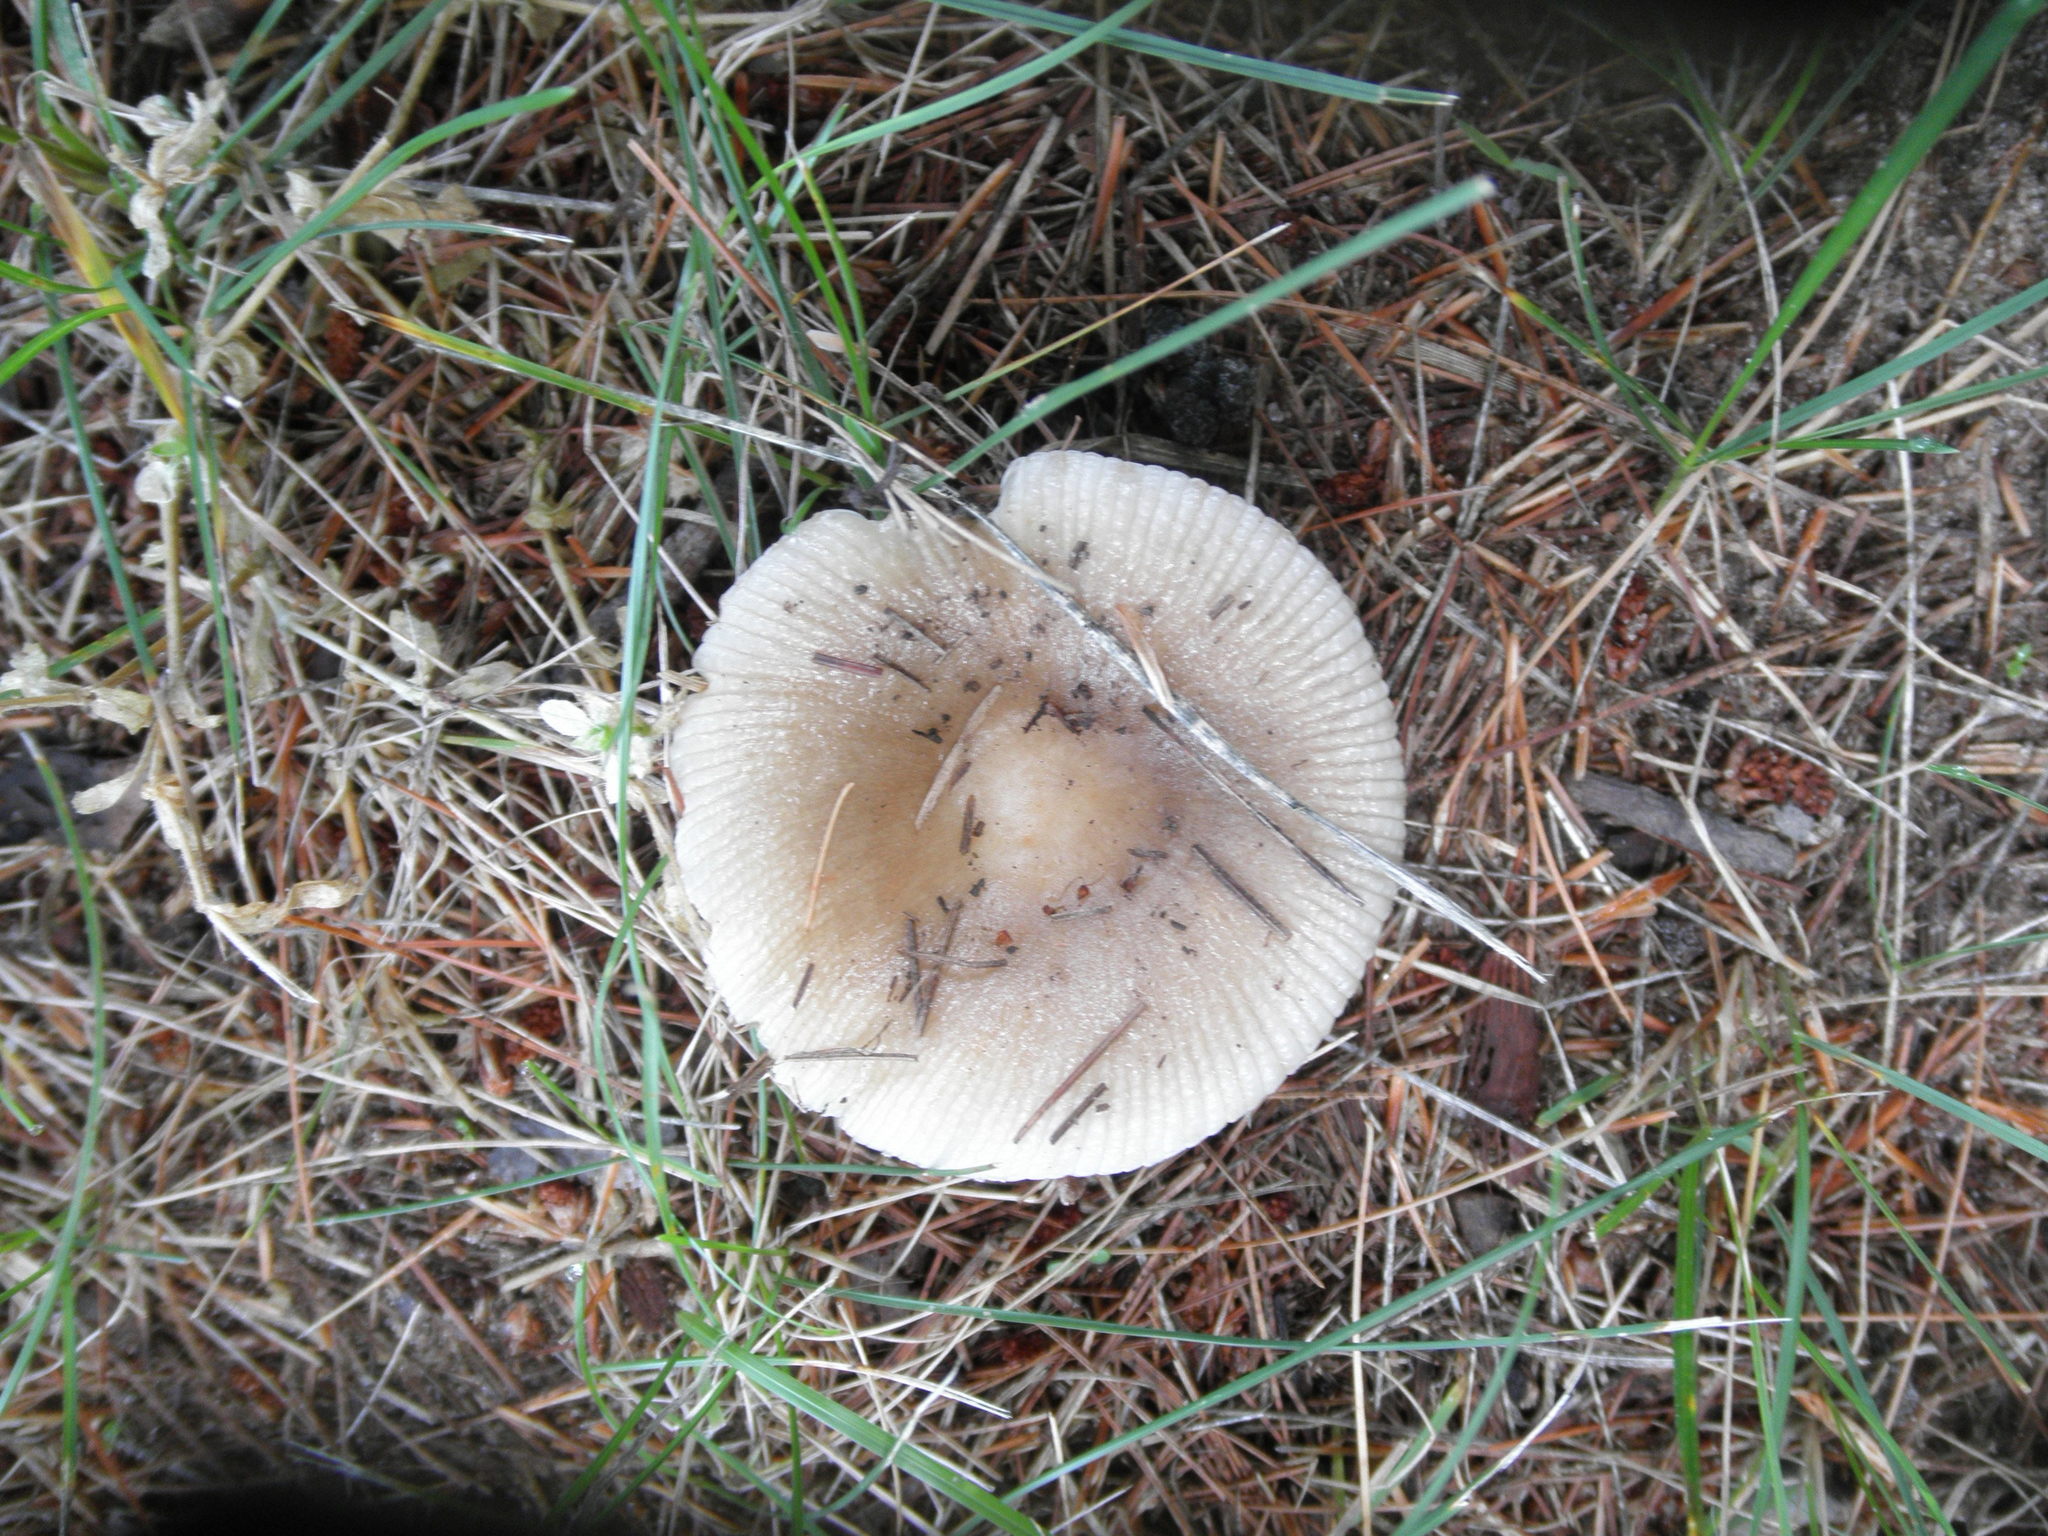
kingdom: Fungi
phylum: Basidiomycota
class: Agaricomycetes
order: Russulales
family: Russulaceae
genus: Russula
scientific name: Russula
